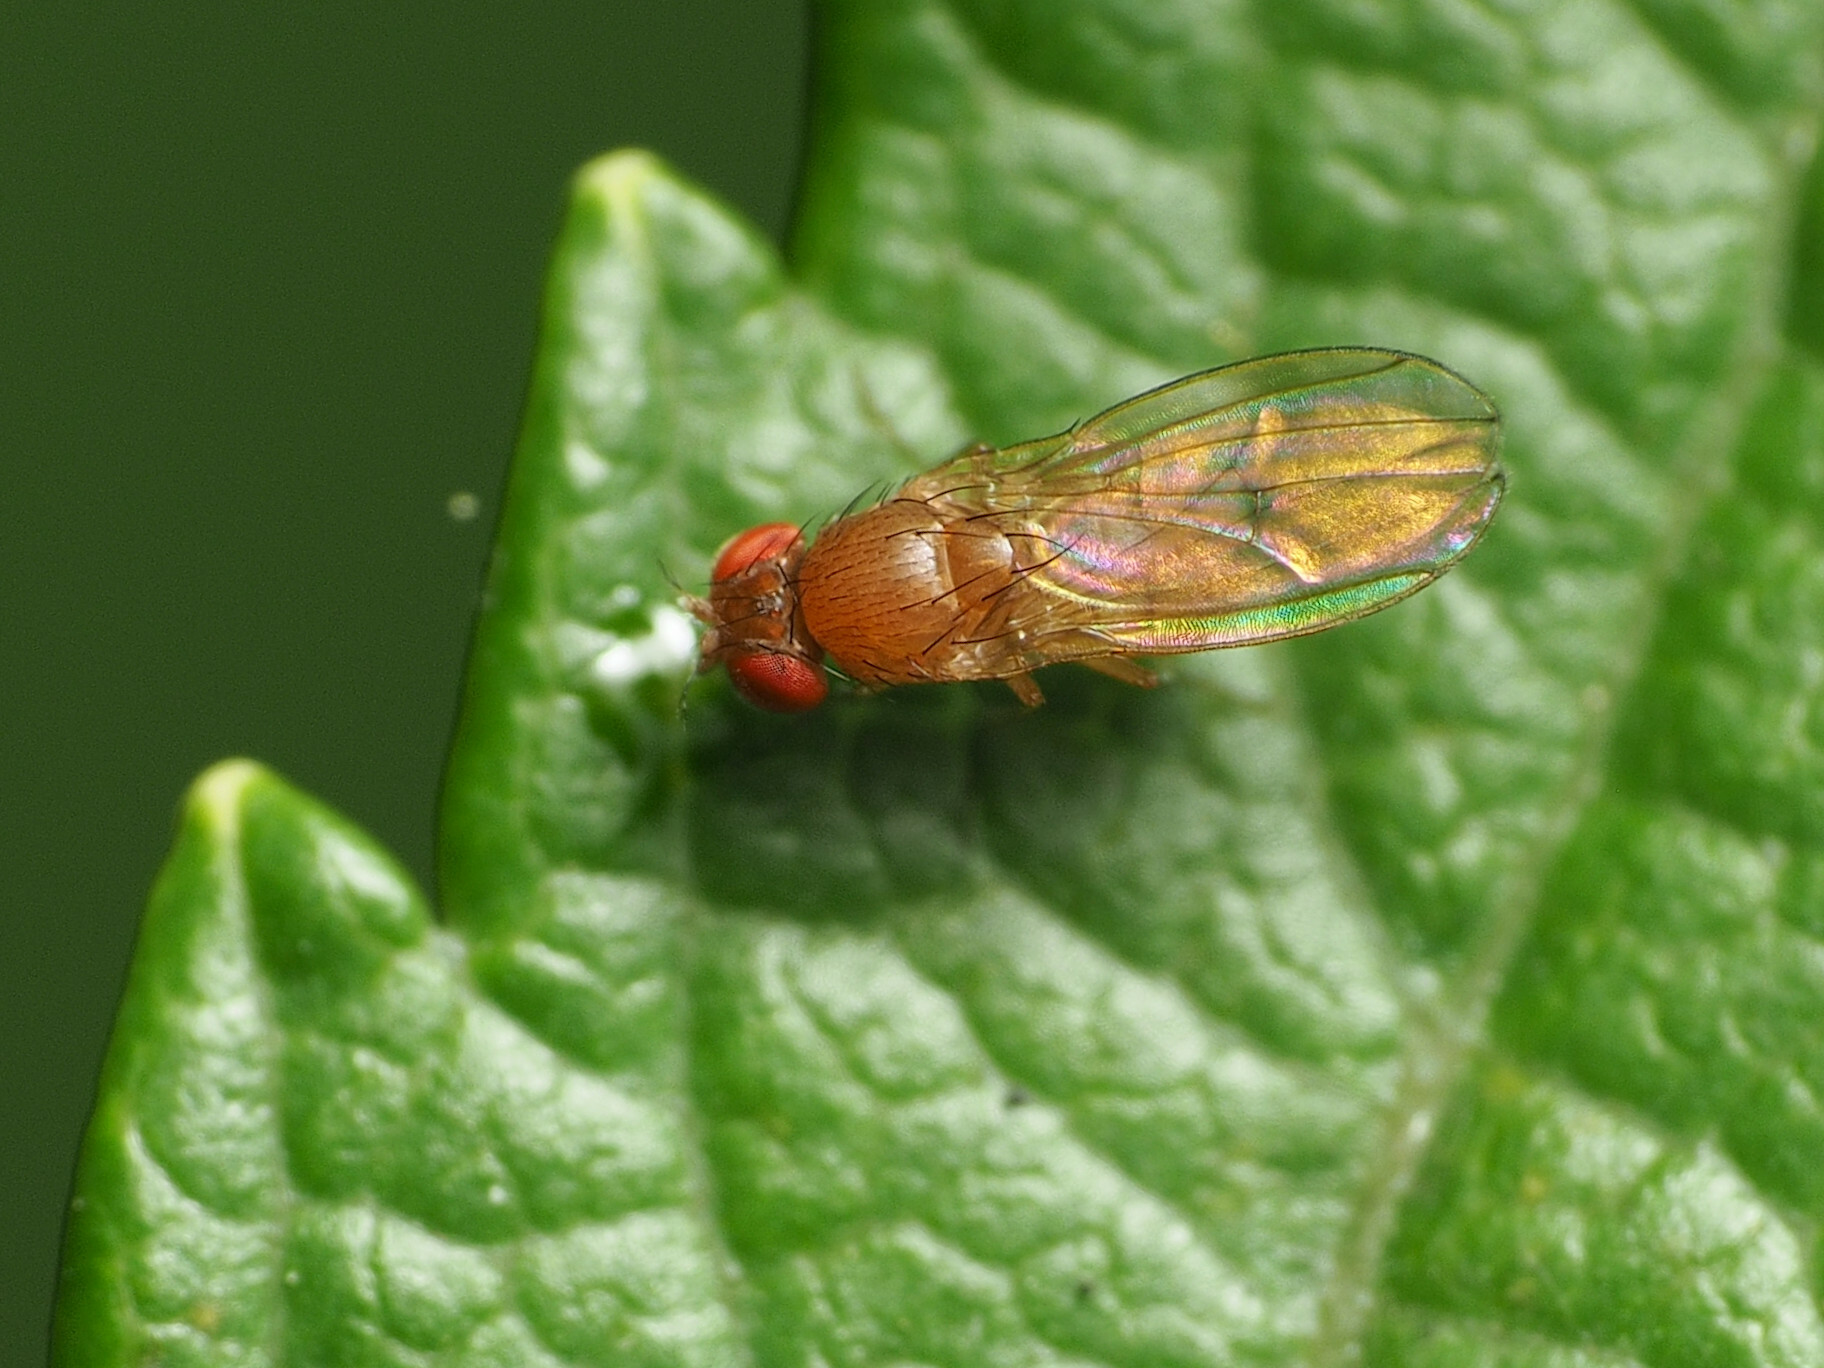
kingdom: Animalia
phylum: Arthropoda
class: Insecta
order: Diptera
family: Drosophilidae
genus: Drosophila
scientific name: Drosophila immigrans
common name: Pomace fly
